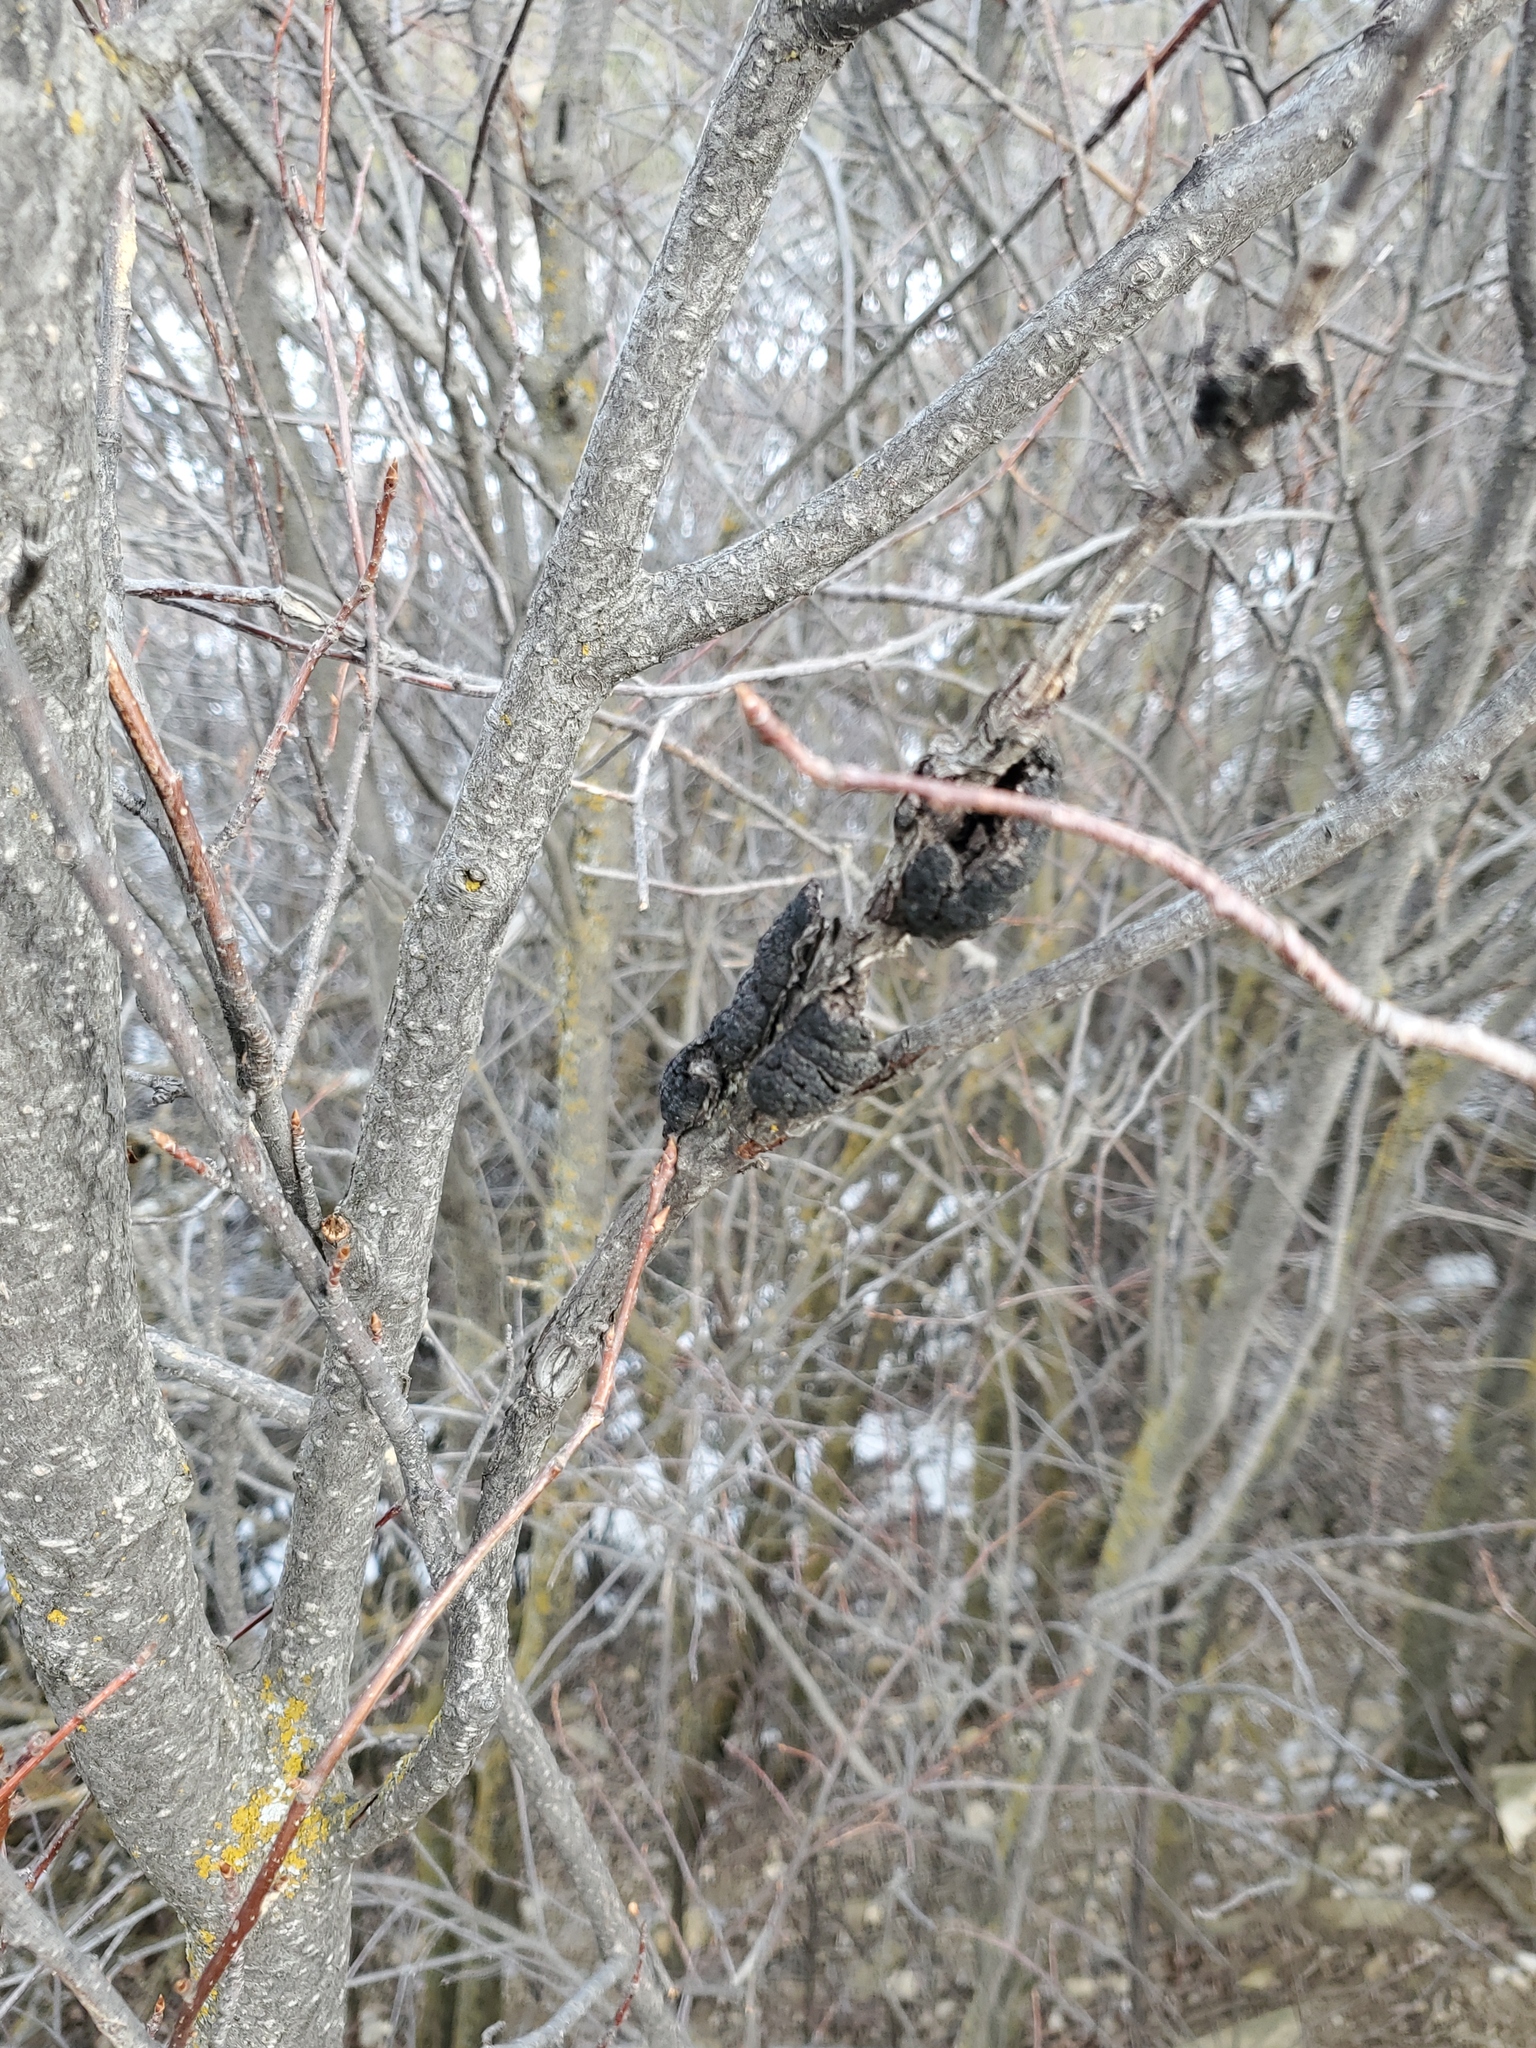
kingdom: Fungi
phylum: Ascomycota
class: Dothideomycetes
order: Venturiales
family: Venturiaceae
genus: Apiosporina
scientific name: Apiosporina morbosa
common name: Black knot
